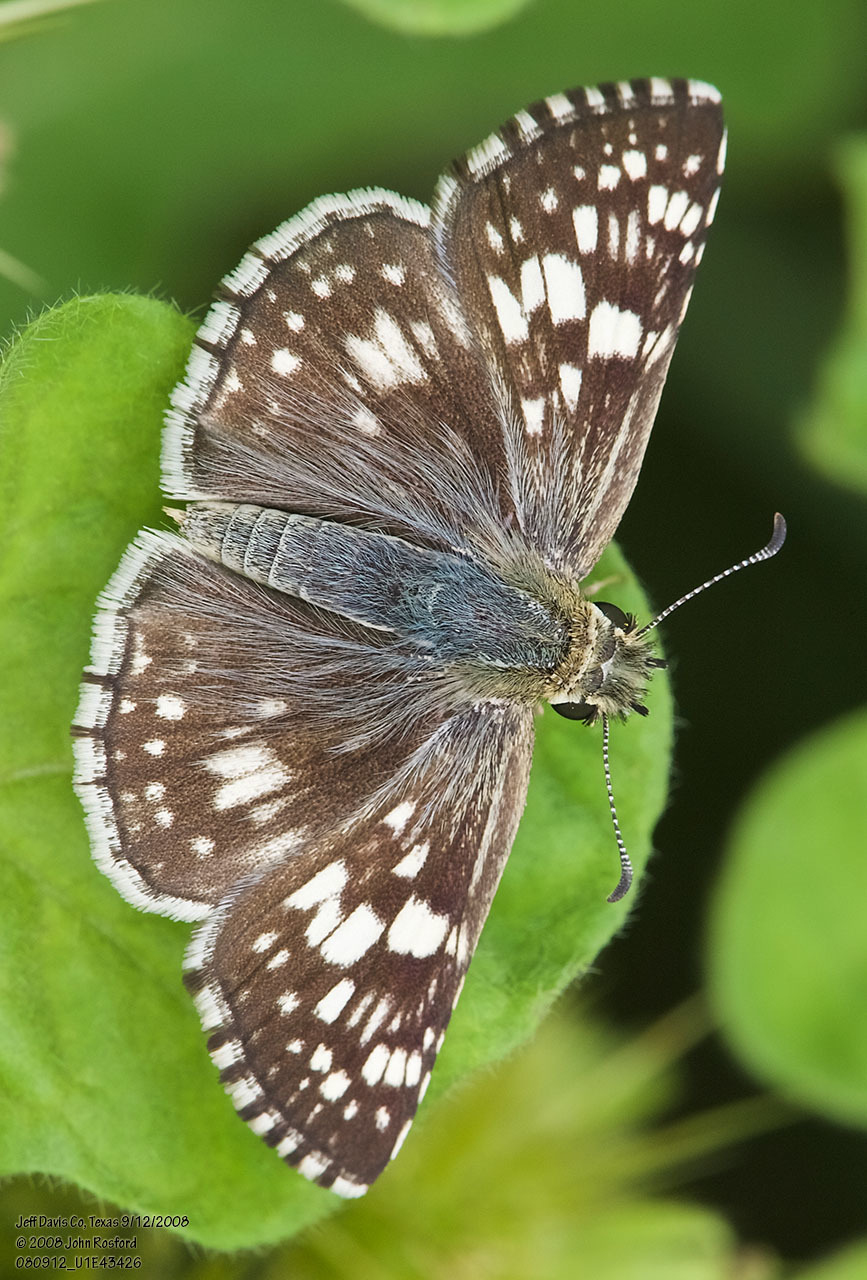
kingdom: Animalia
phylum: Arthropoda
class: Insecta
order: Lepidoptera
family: Hesperiidae
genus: Burnsius
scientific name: Burnsius
